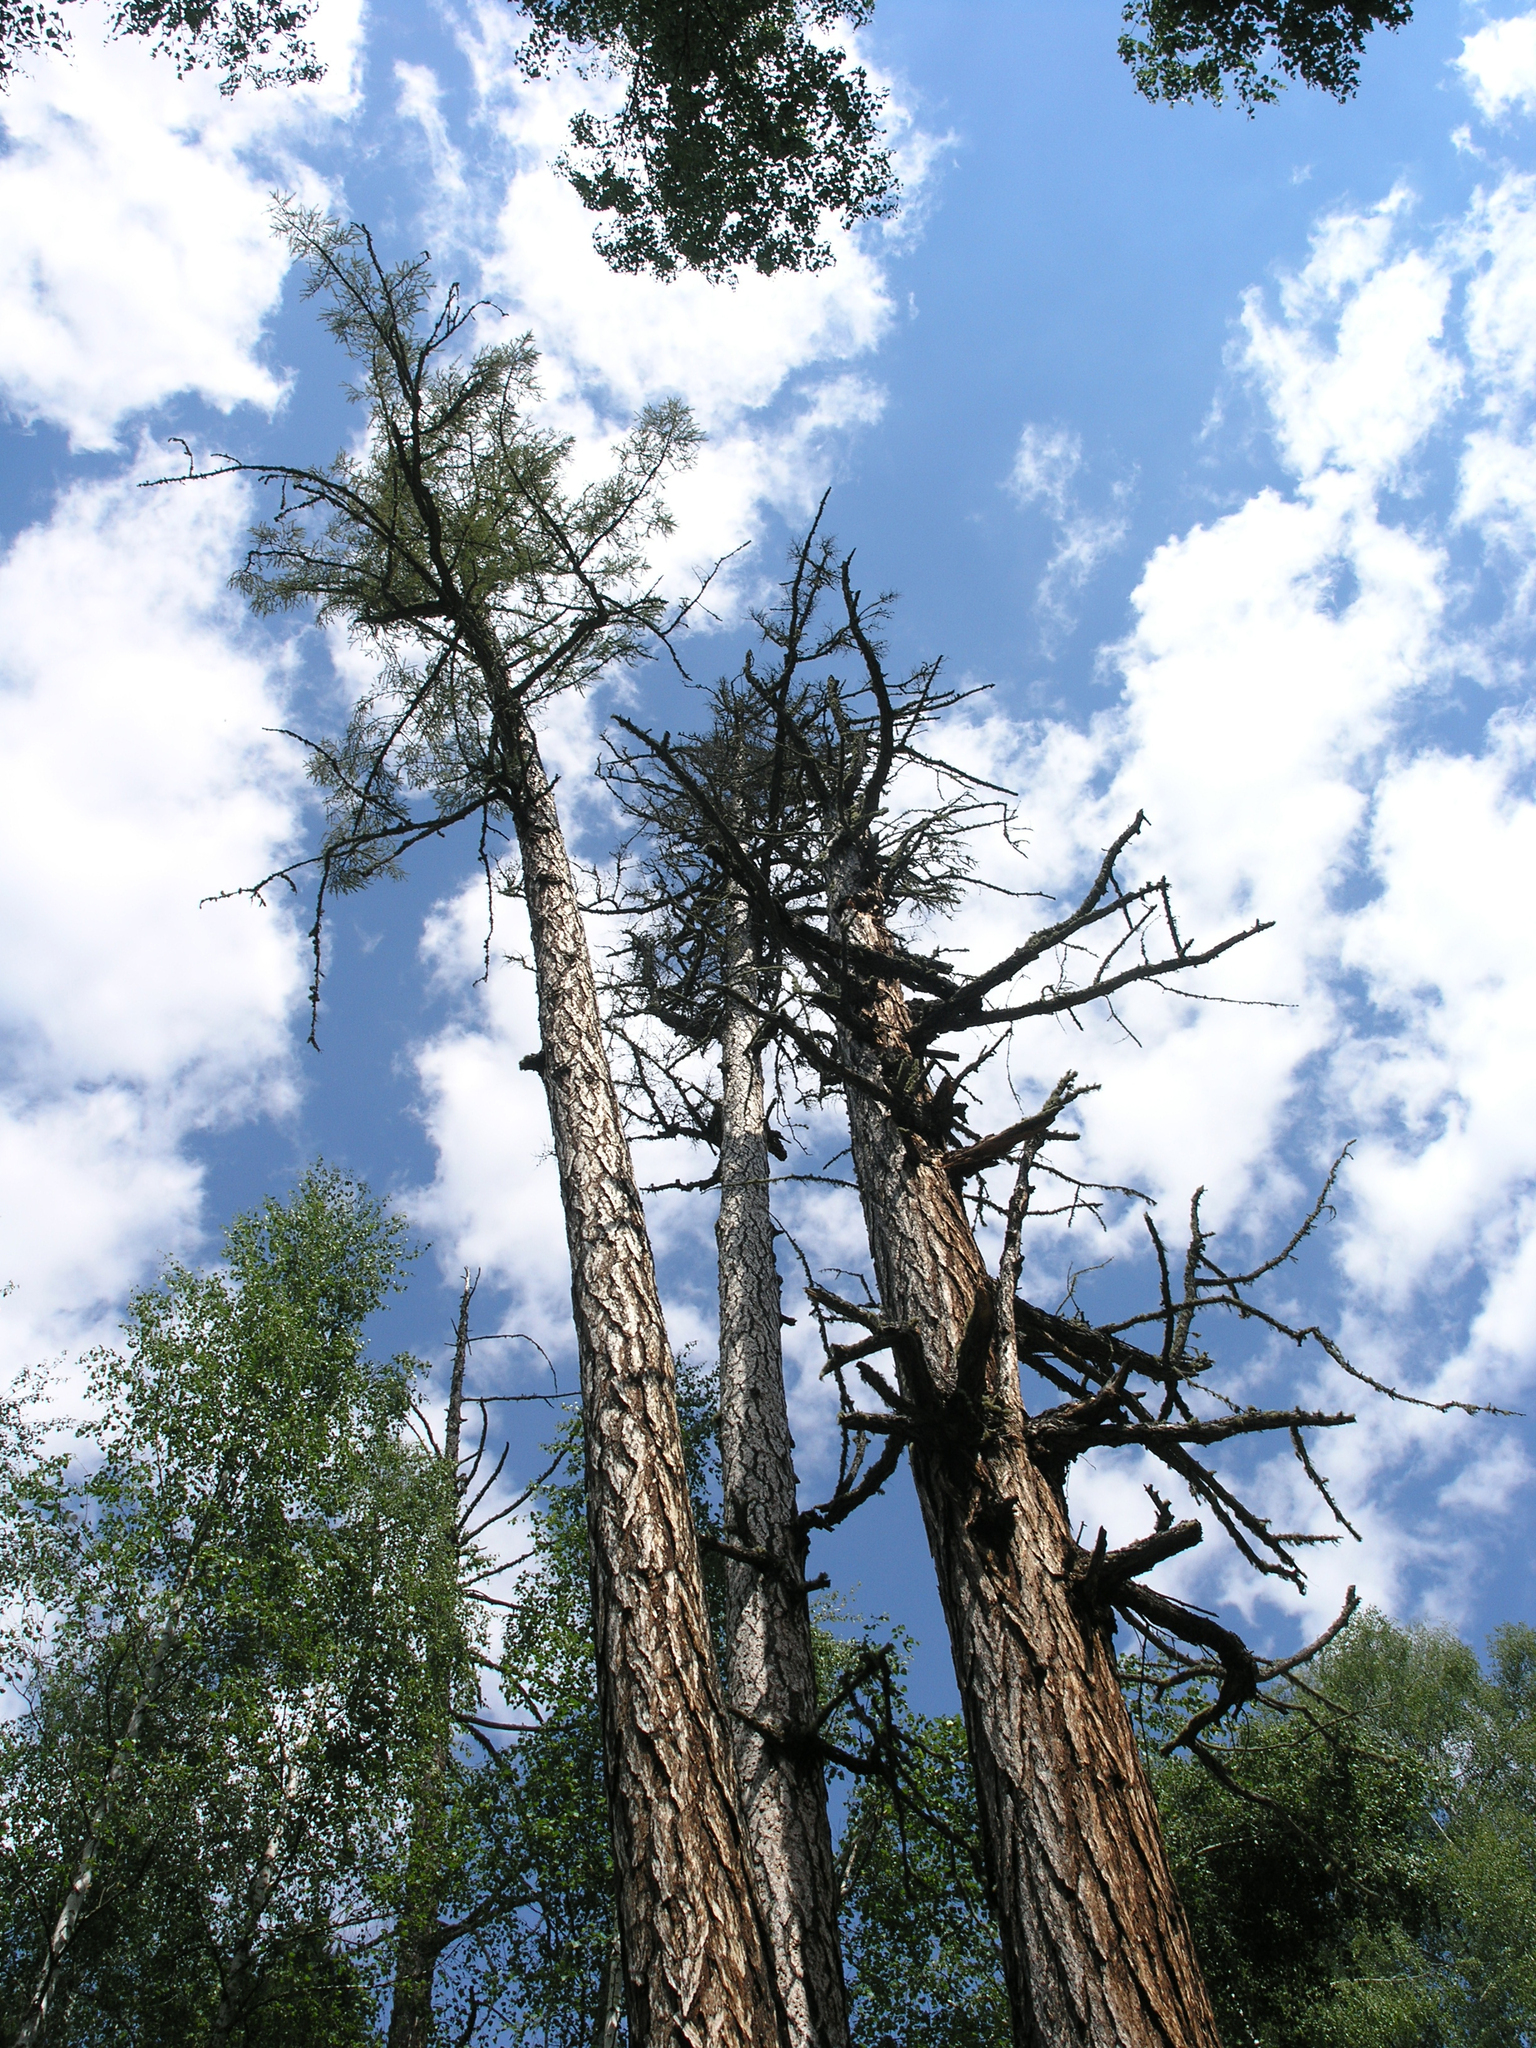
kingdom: Plantae
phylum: Tracheophyta
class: Pinopsida
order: Pinales
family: Pinaceae
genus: Larix
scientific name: Larix sibirica
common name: Siberian larch
